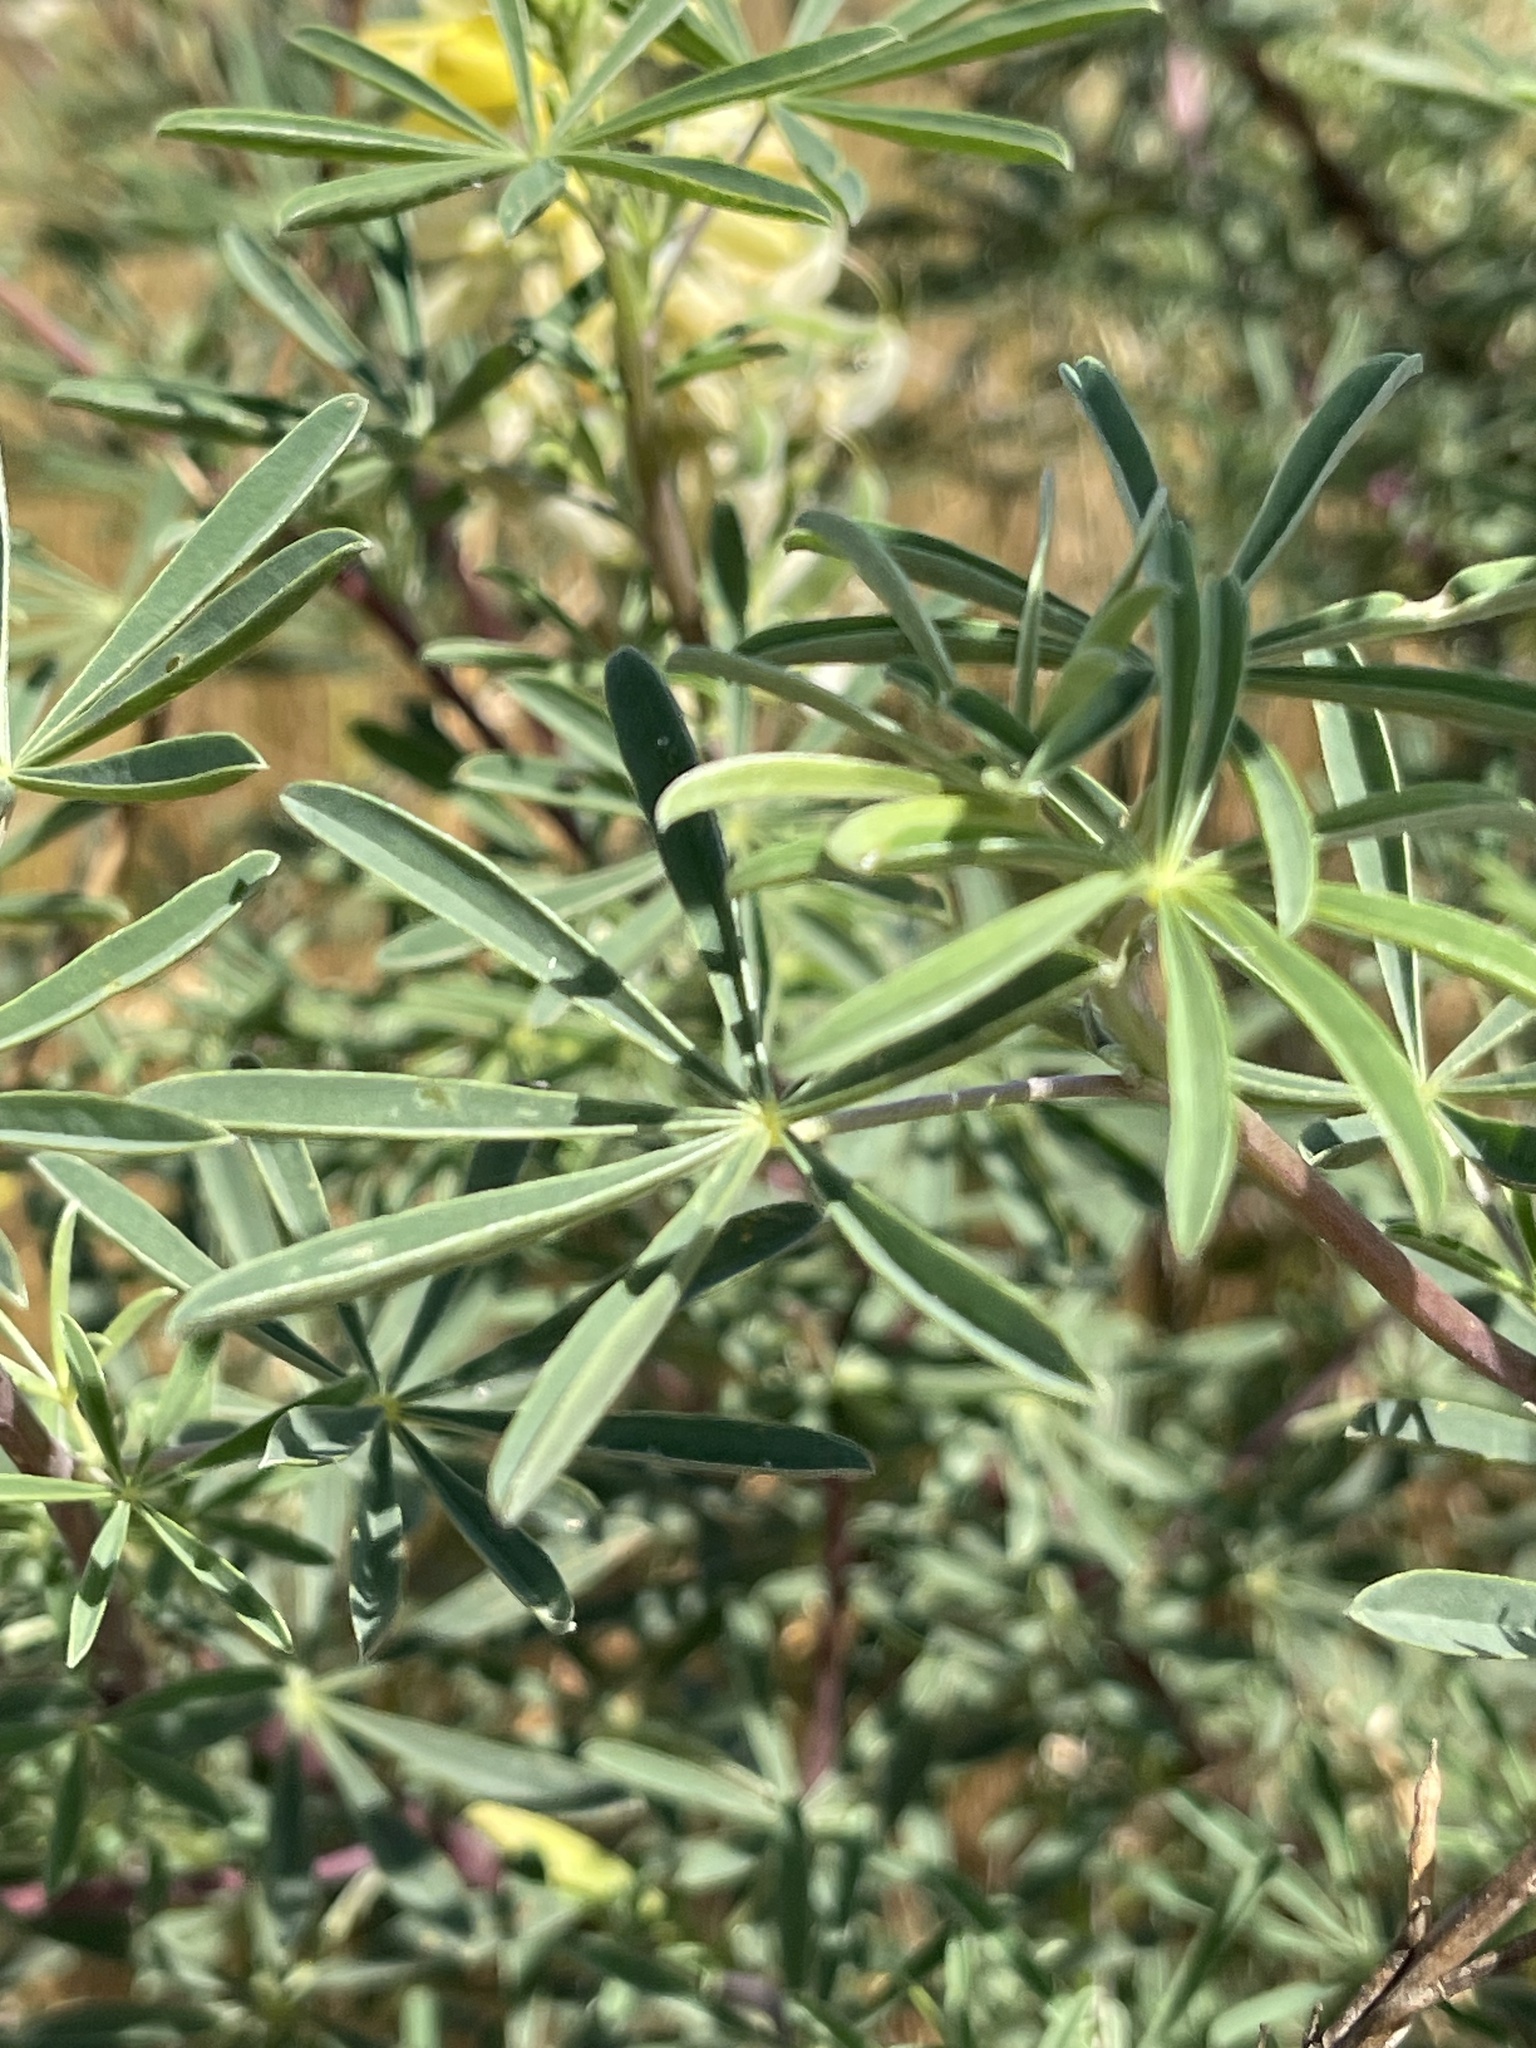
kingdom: Plantae
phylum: Tracheophyta
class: Magnoliopsida
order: Fabales
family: Fabaceae
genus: Lupinus
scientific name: Lupinus arboreus
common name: Yellow bush lupine
